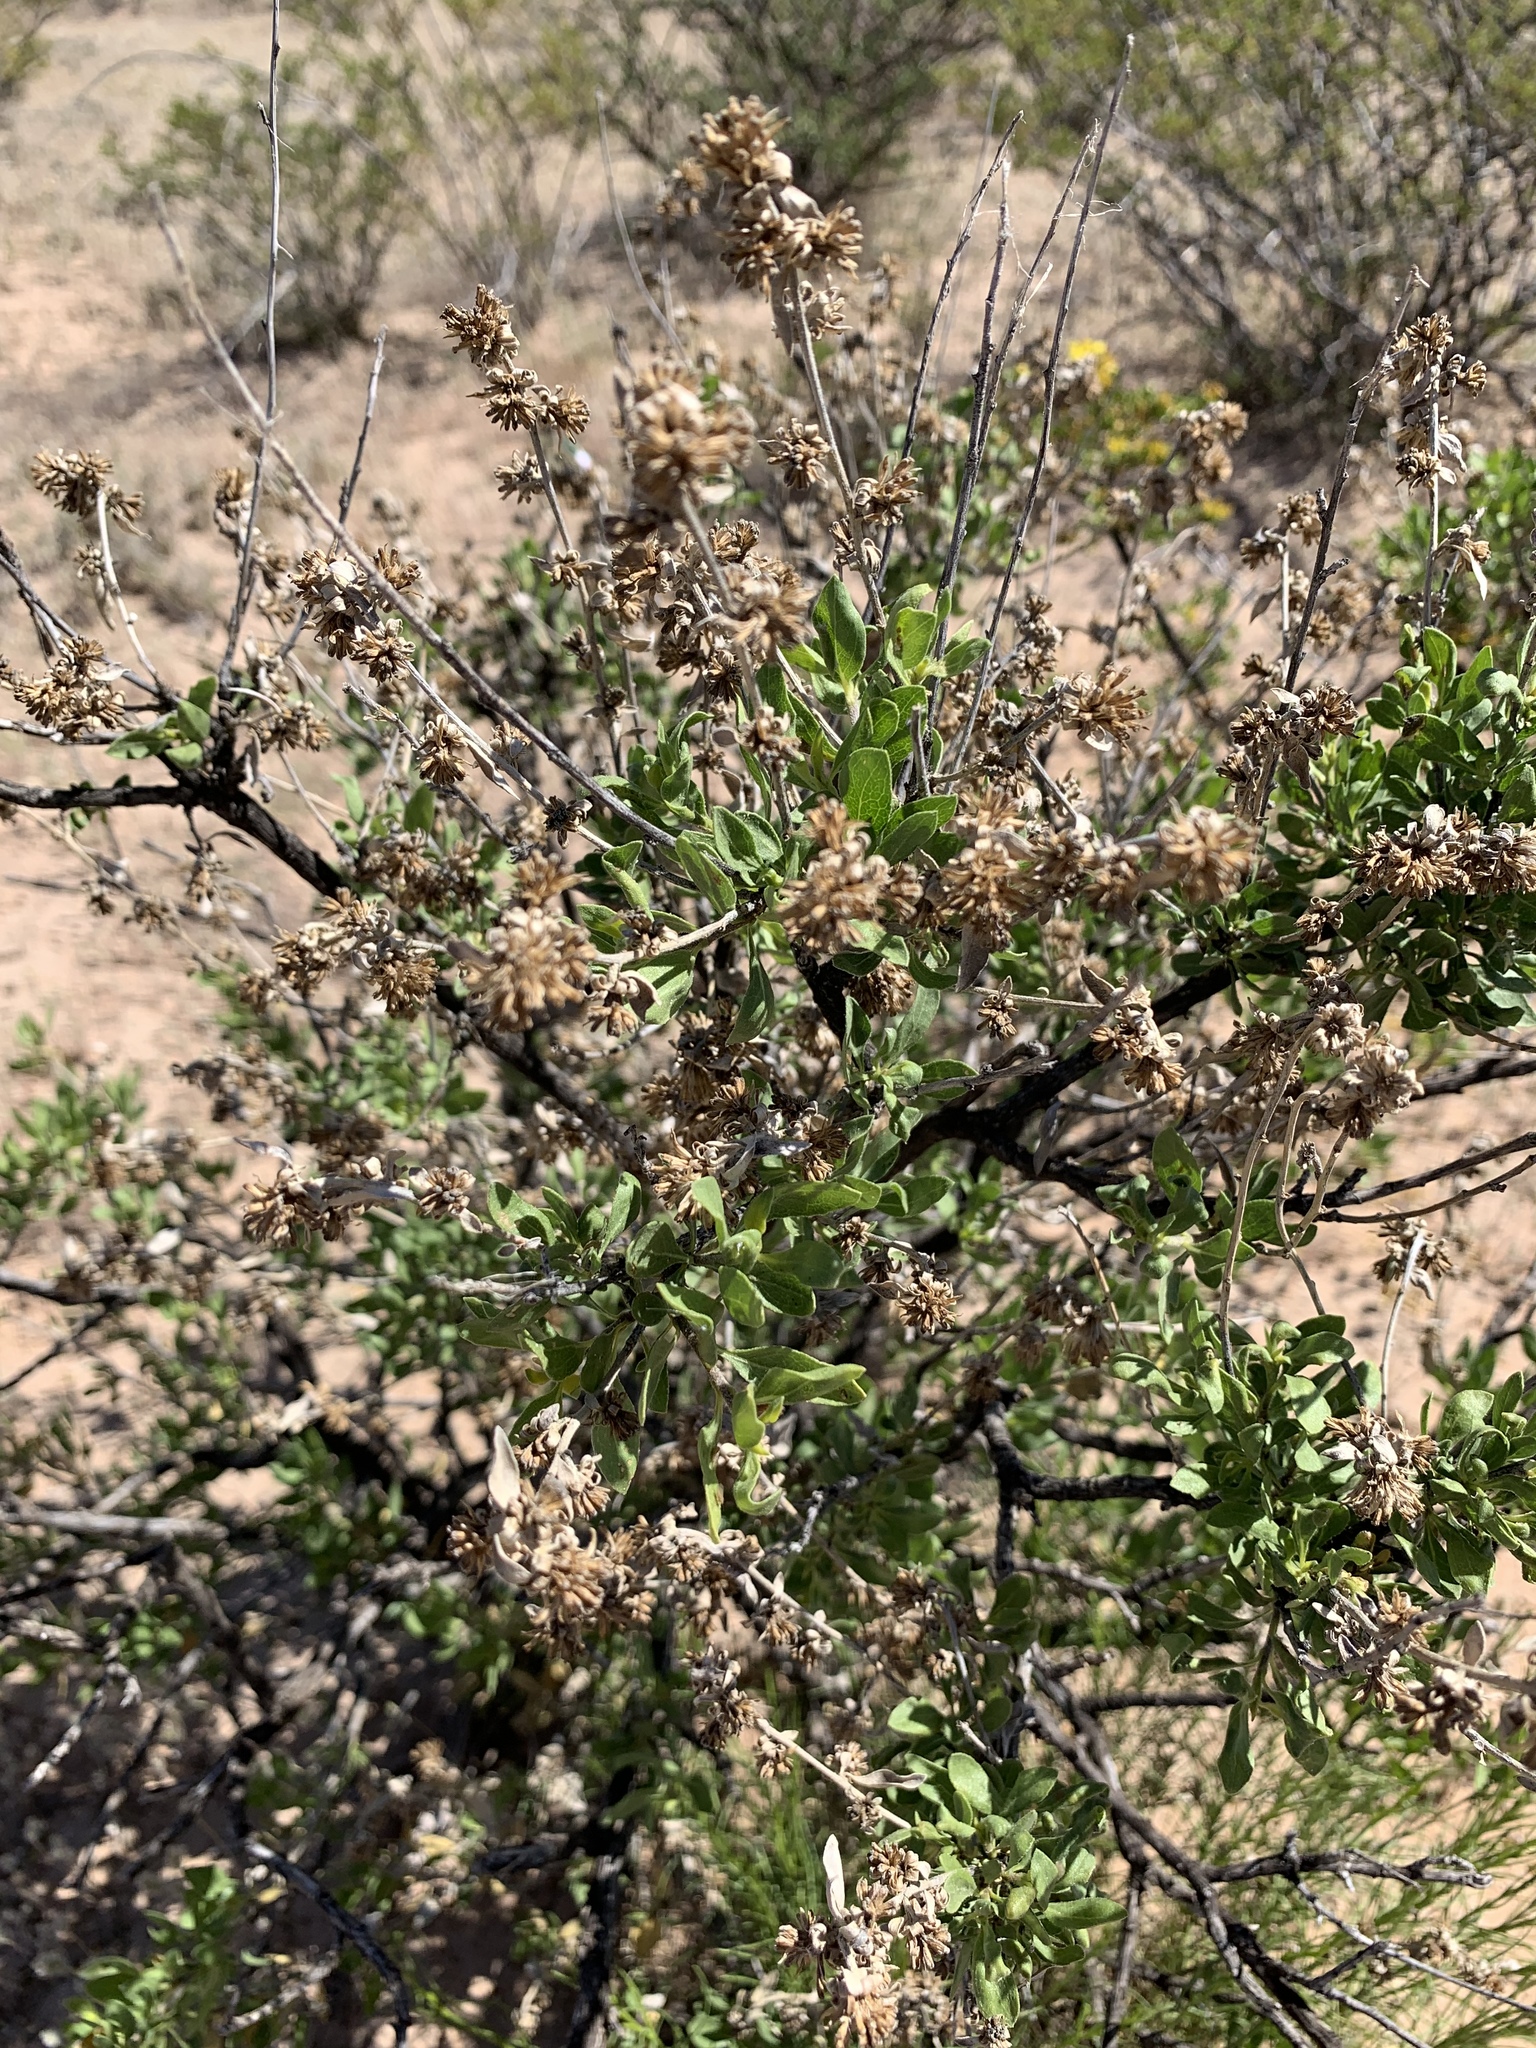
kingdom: Plantae
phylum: Tracheophyta
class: Magnoliopsida
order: Asterales
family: Asteraceae
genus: Flourensia
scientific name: Flourensia cernua
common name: Varnishbush
